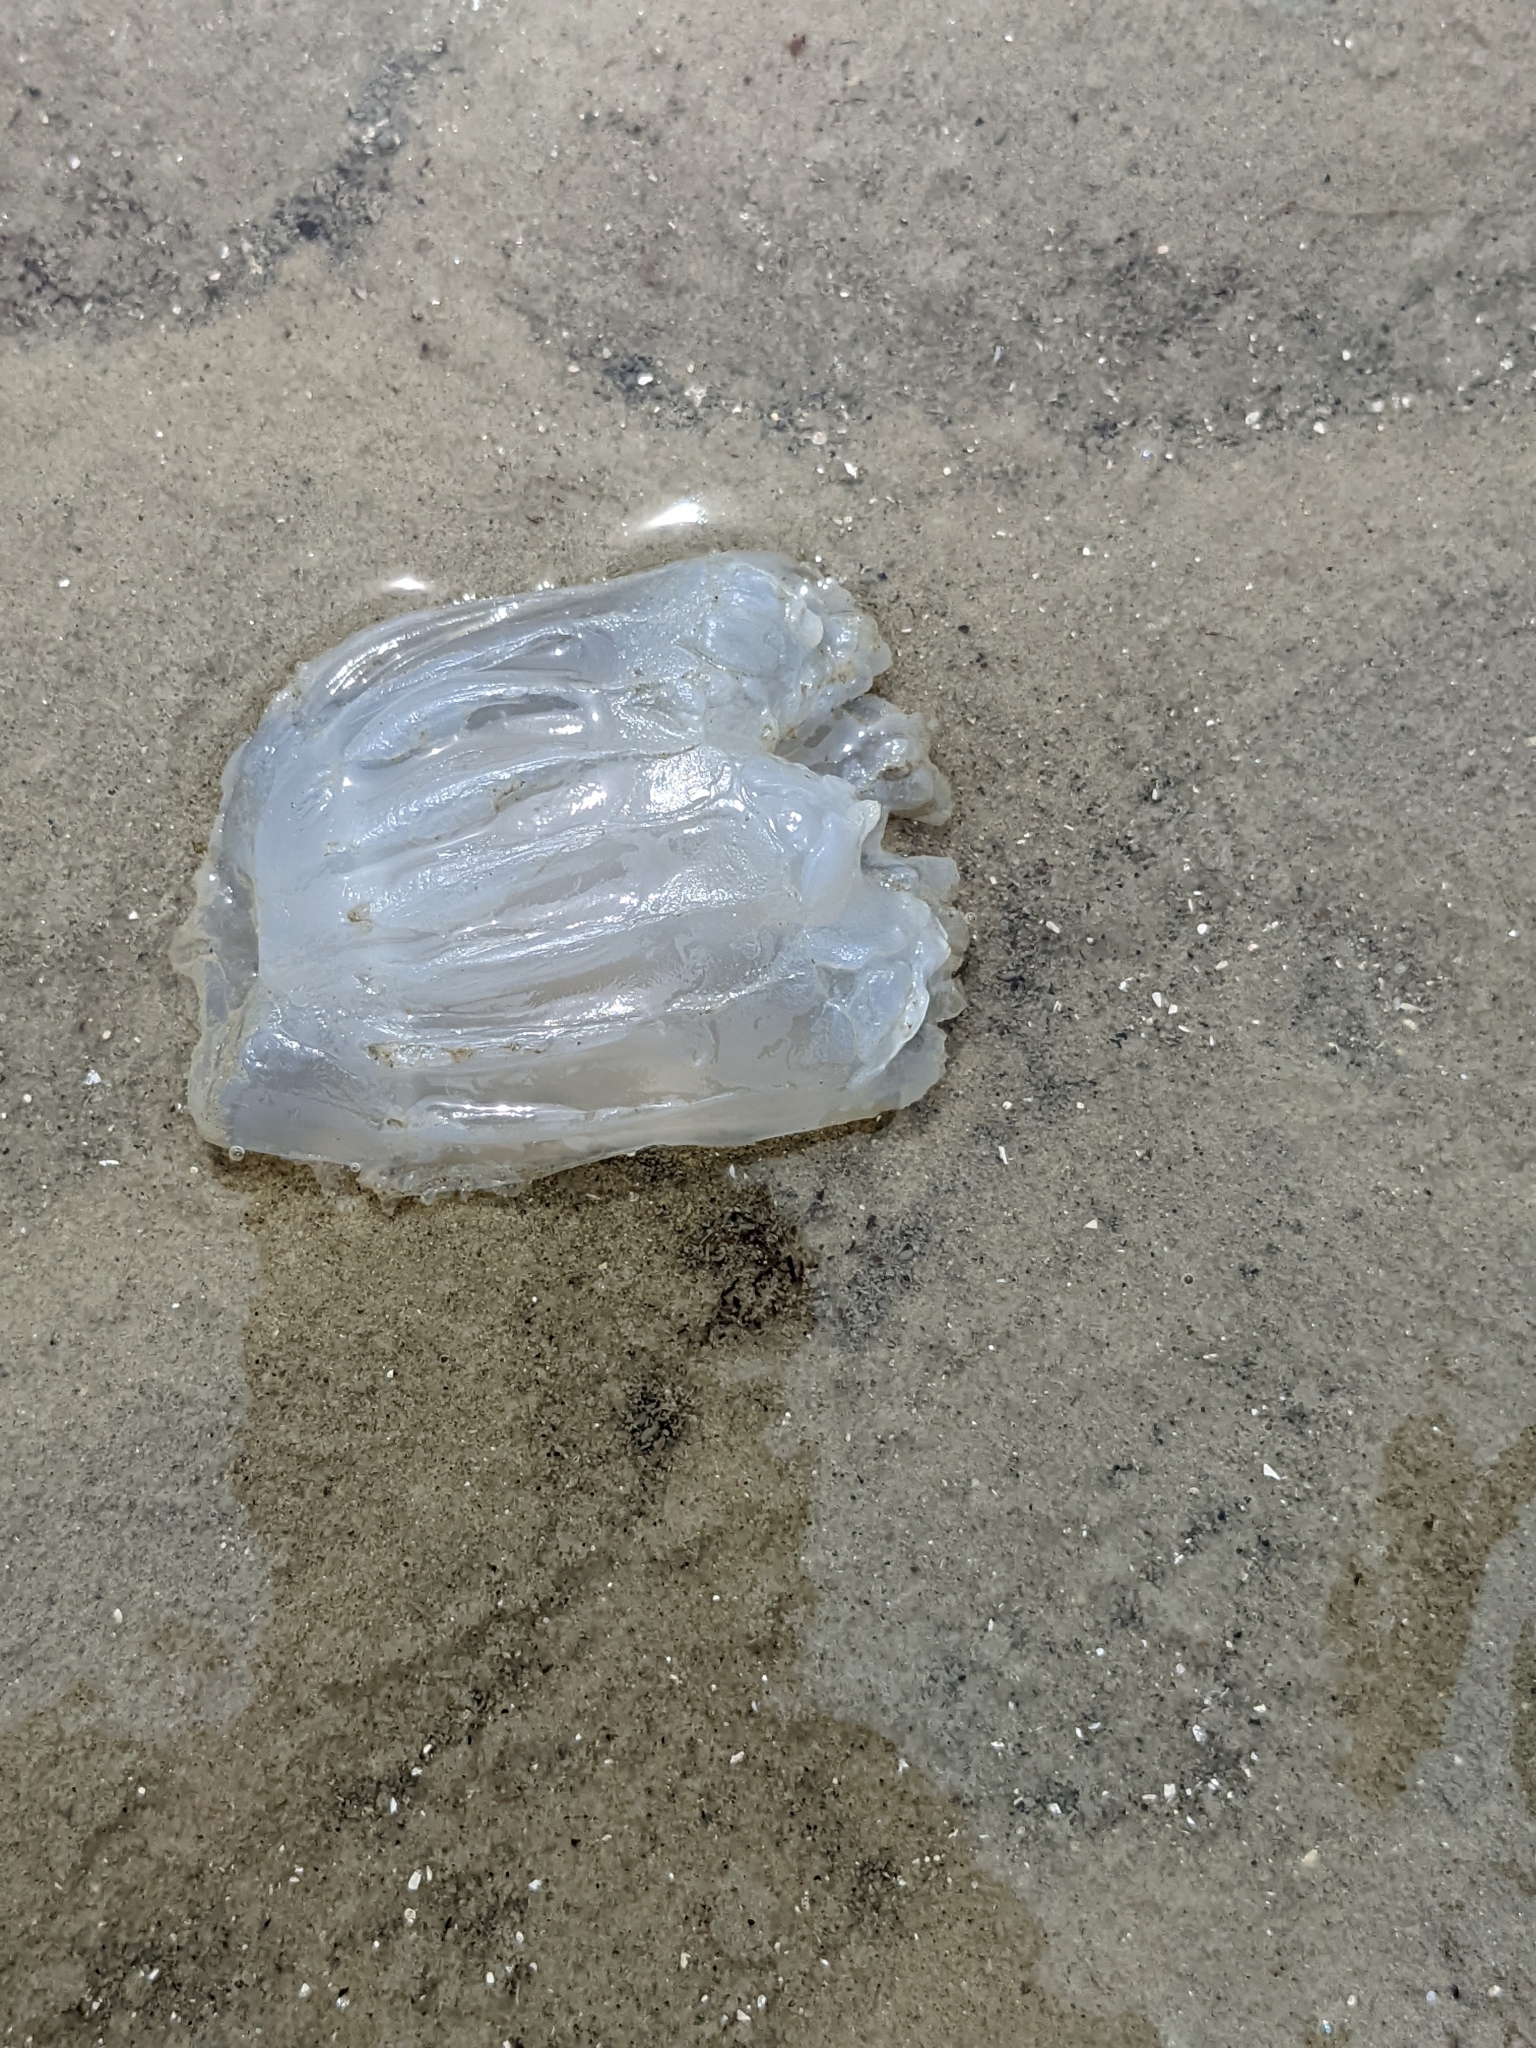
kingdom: Animalia
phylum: Cnidaria
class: Scyphozoa
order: Rhizostomeae
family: Stomolophidae
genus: Stomolophus
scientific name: Stomolophus meleagris
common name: Cabbagehead
